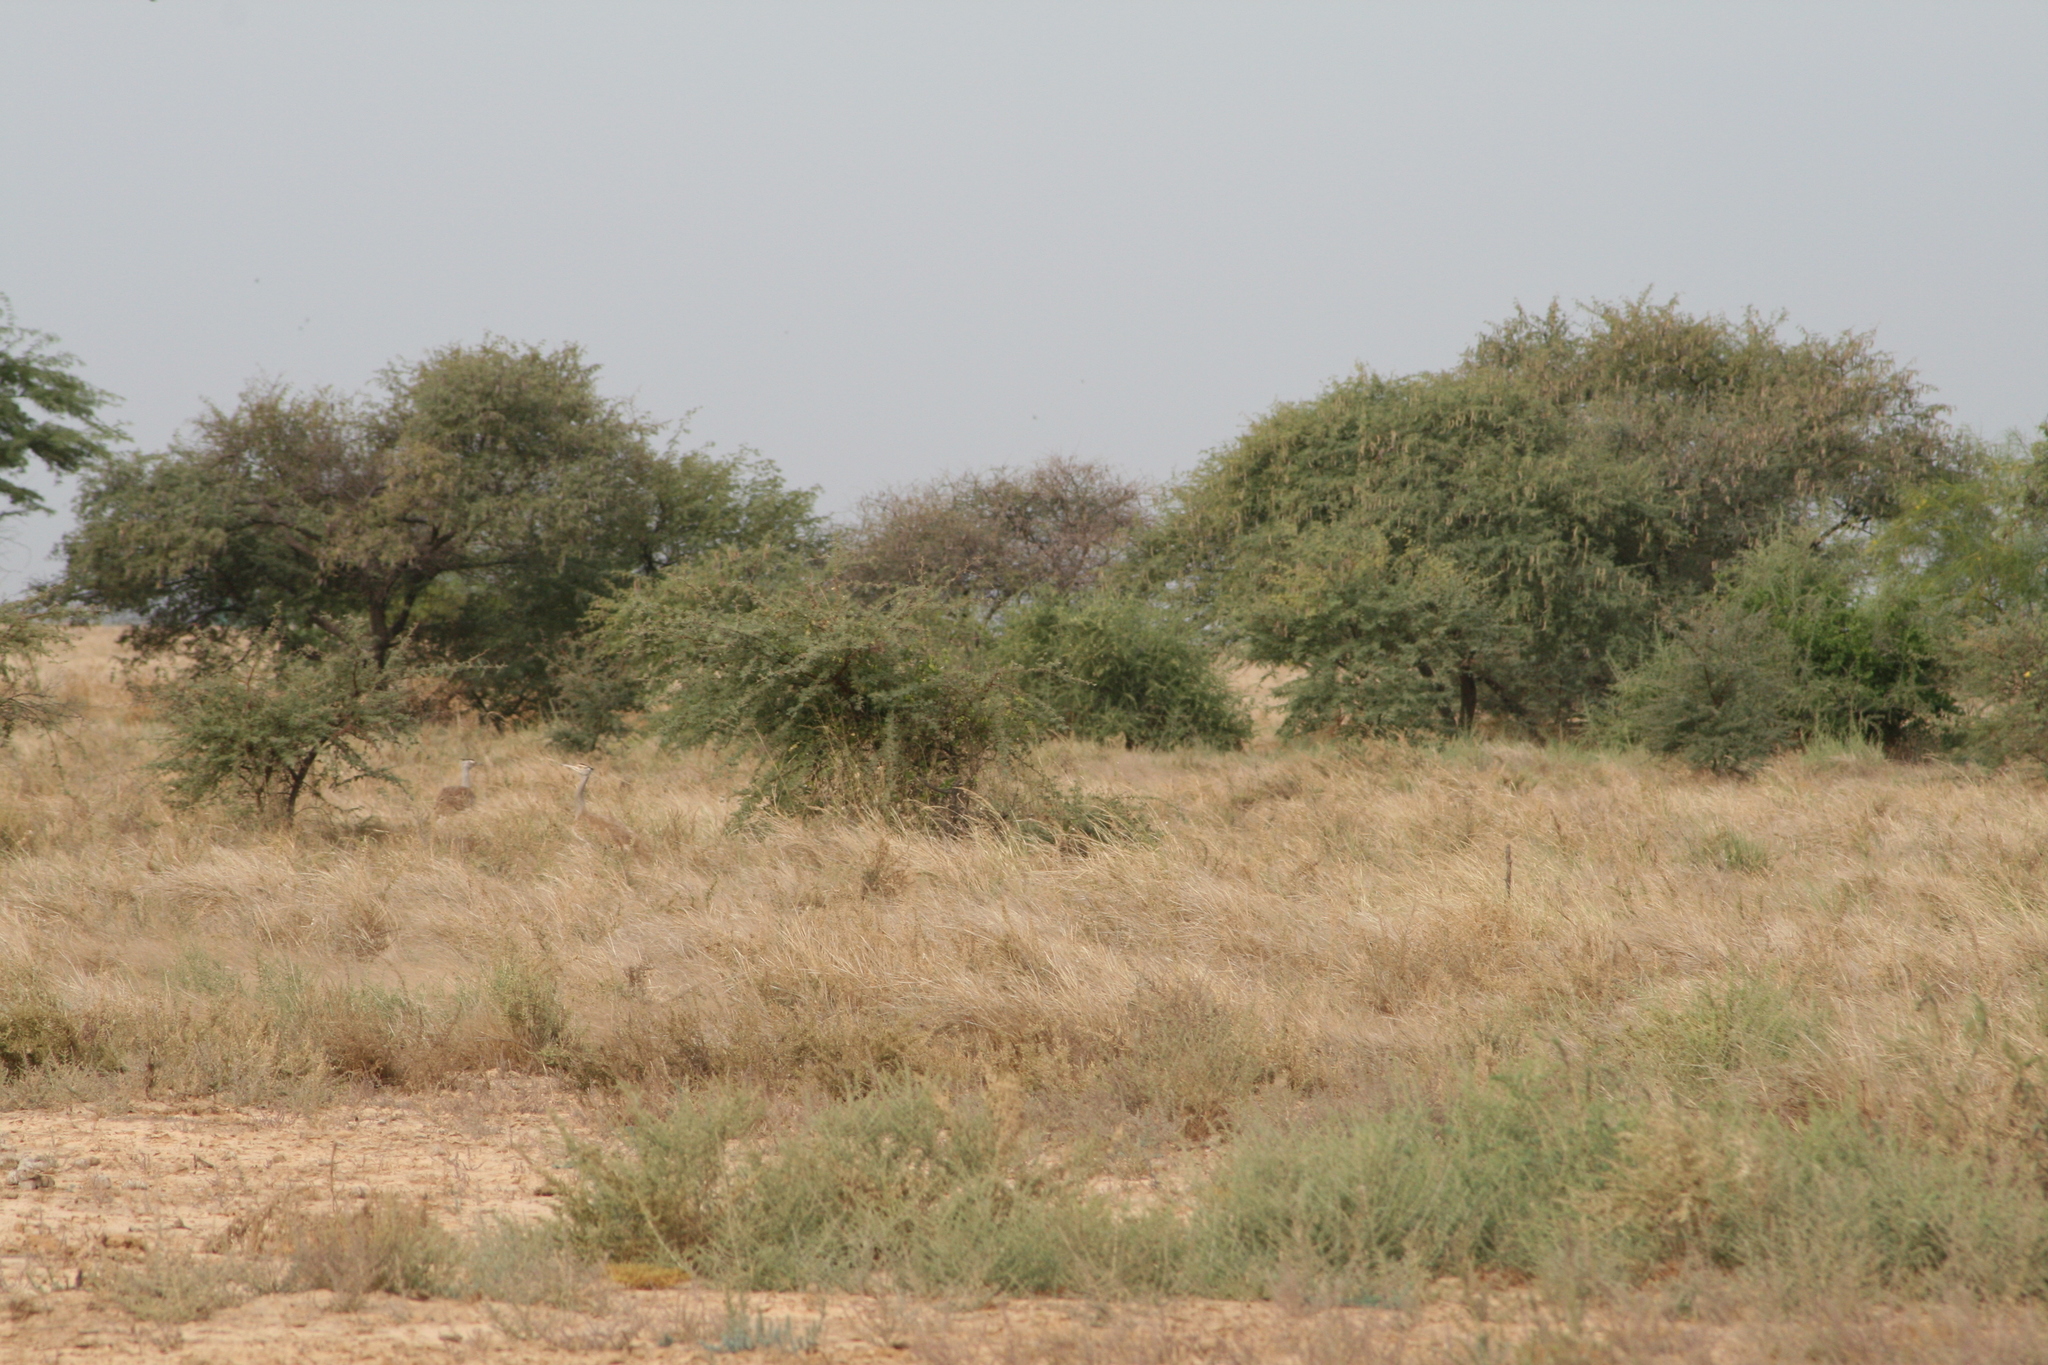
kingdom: Animalia
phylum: Chordata
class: Aves
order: Otidiformes
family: Otididae
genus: Ardeotis
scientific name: Ardeotis arabs
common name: Arabian bustard
